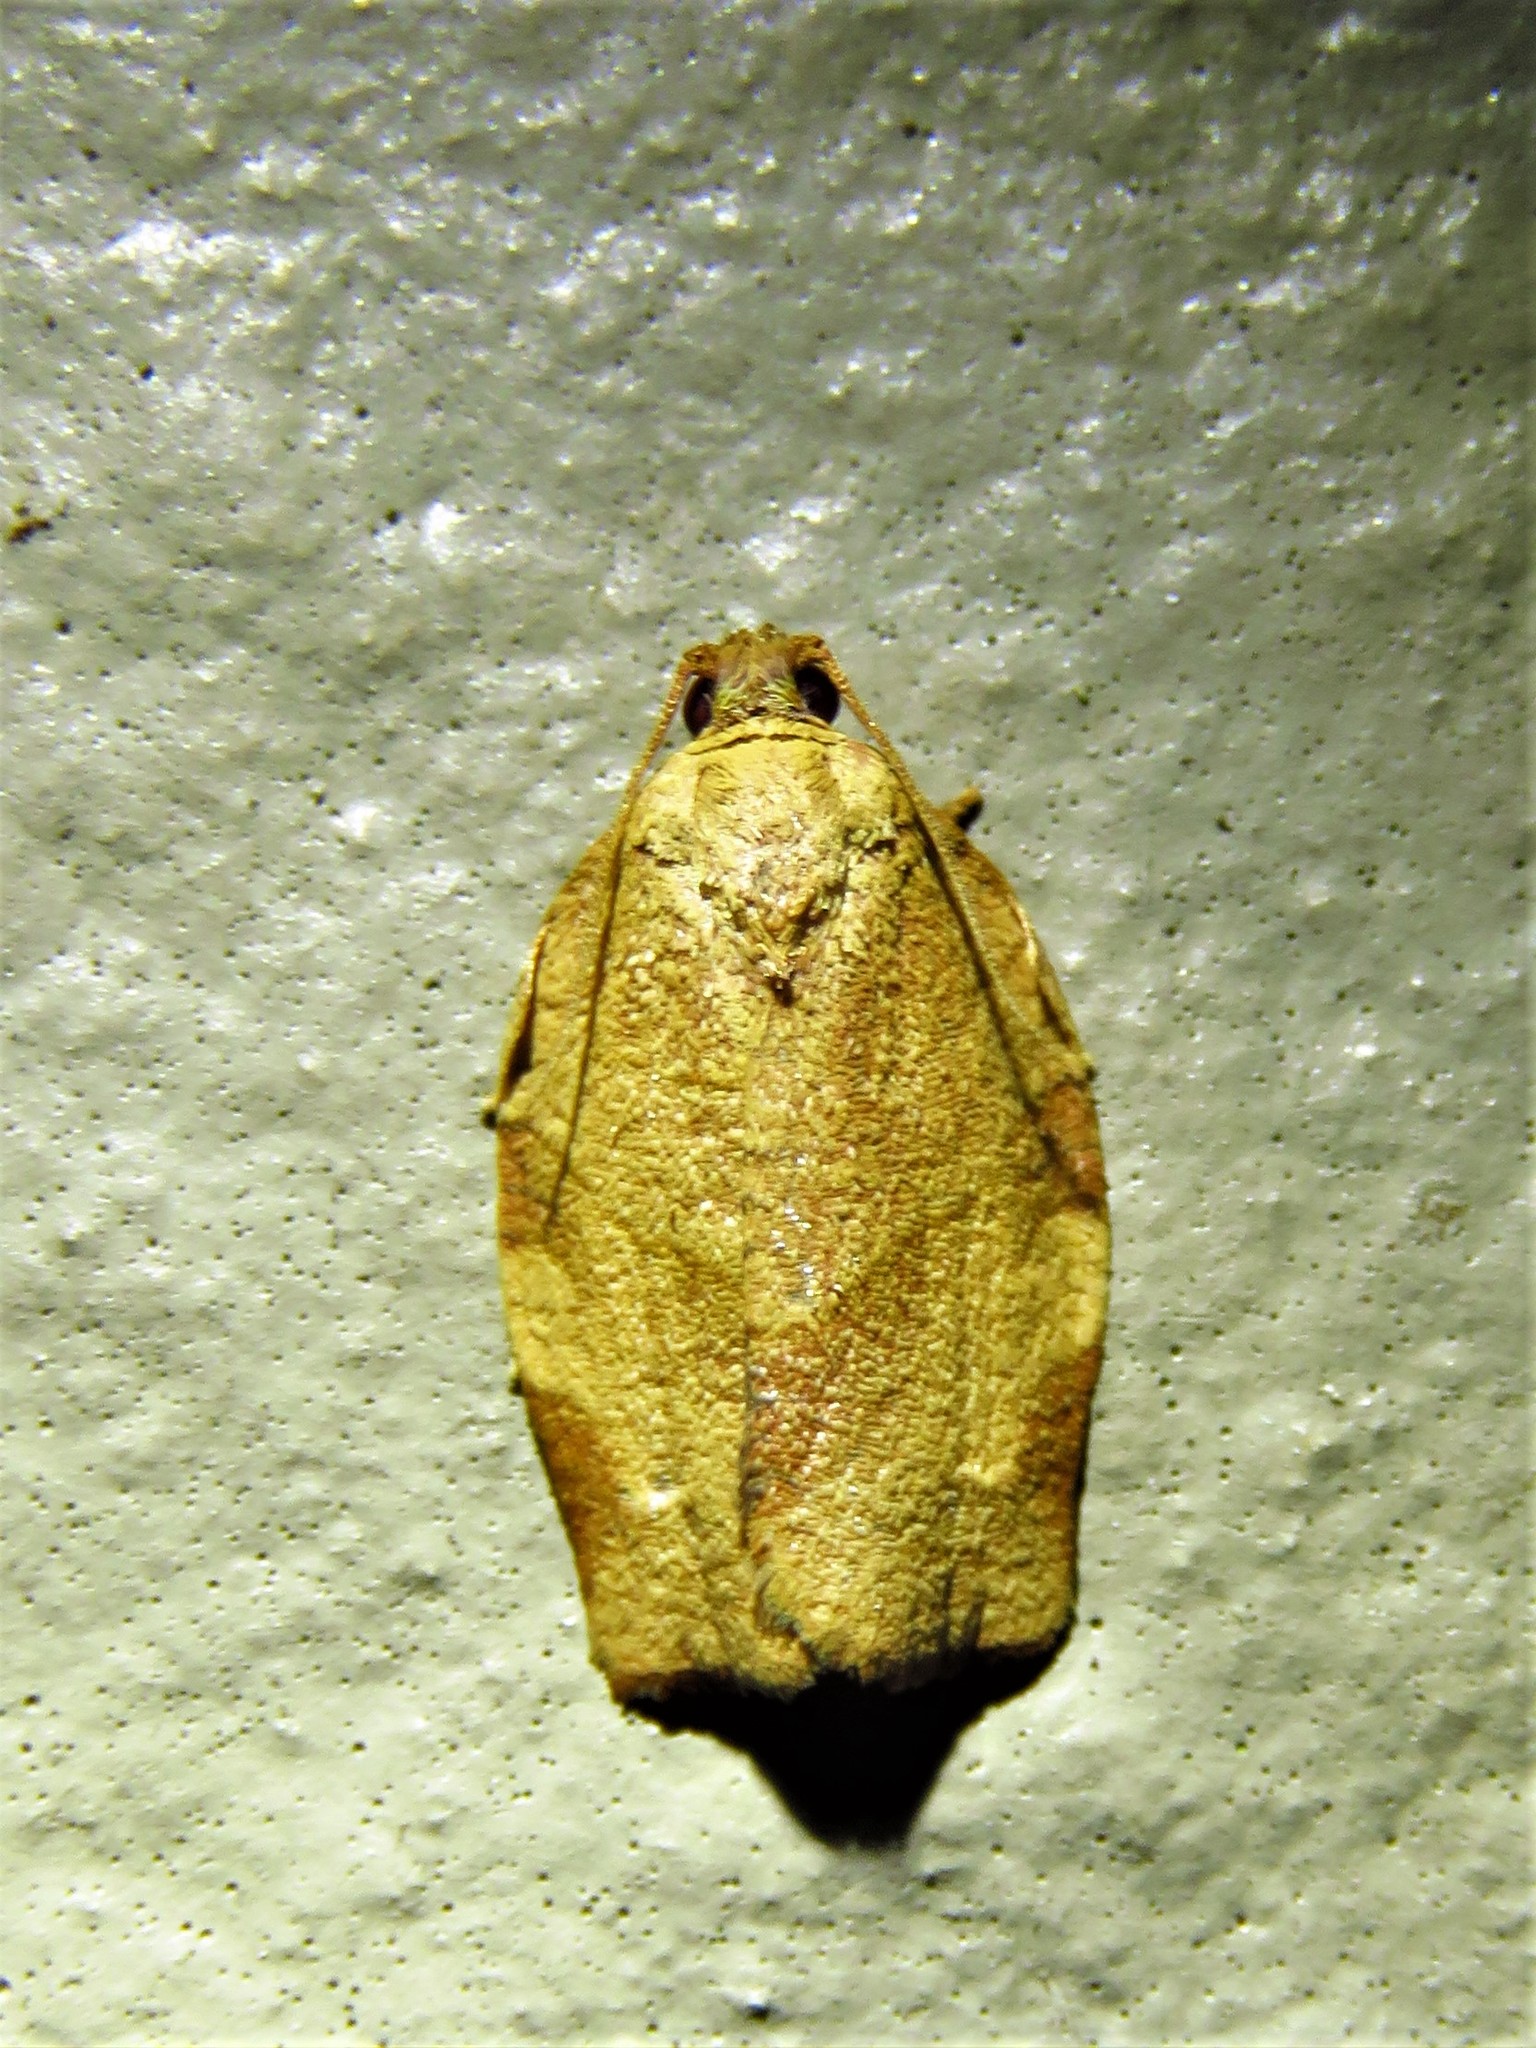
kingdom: Animalia
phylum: Arthropoda
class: Insecta
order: Lepidoptera
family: Tortricidae
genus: Choristoneura
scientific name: Choristoneura rosaceana
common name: Oblique-banded leafroller moth
